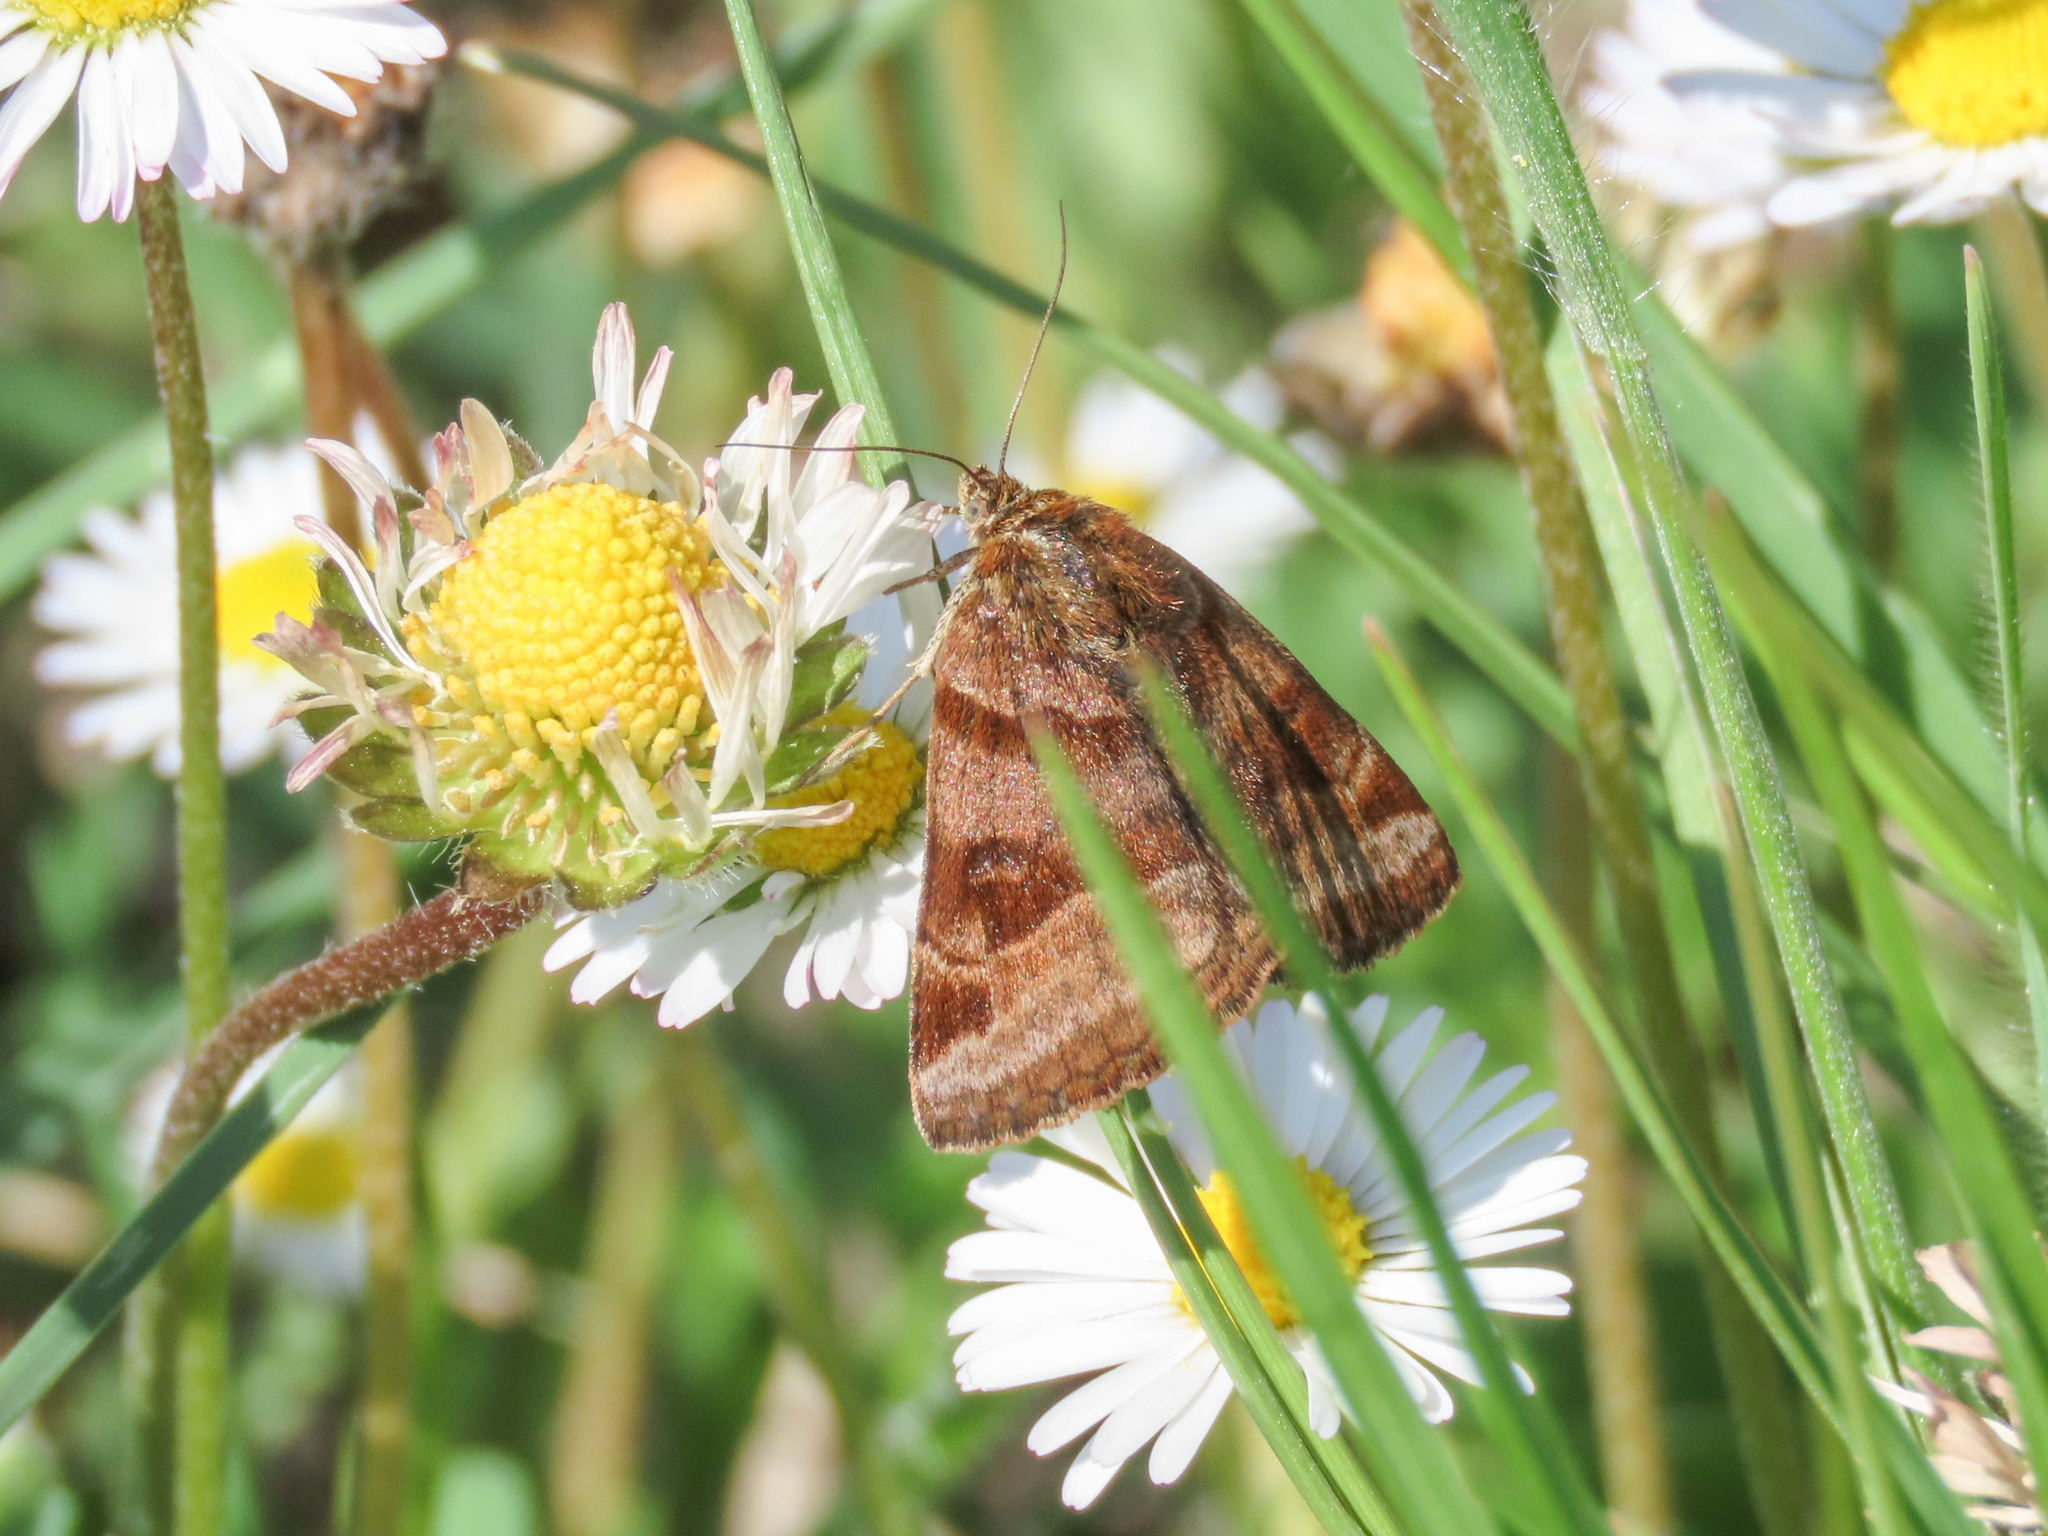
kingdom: Animalia
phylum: Arthropoda
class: Insecta
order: Lepidoptera
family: Erebidae
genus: Euclidia
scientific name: Euclidia glyphica
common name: Burnet companion
